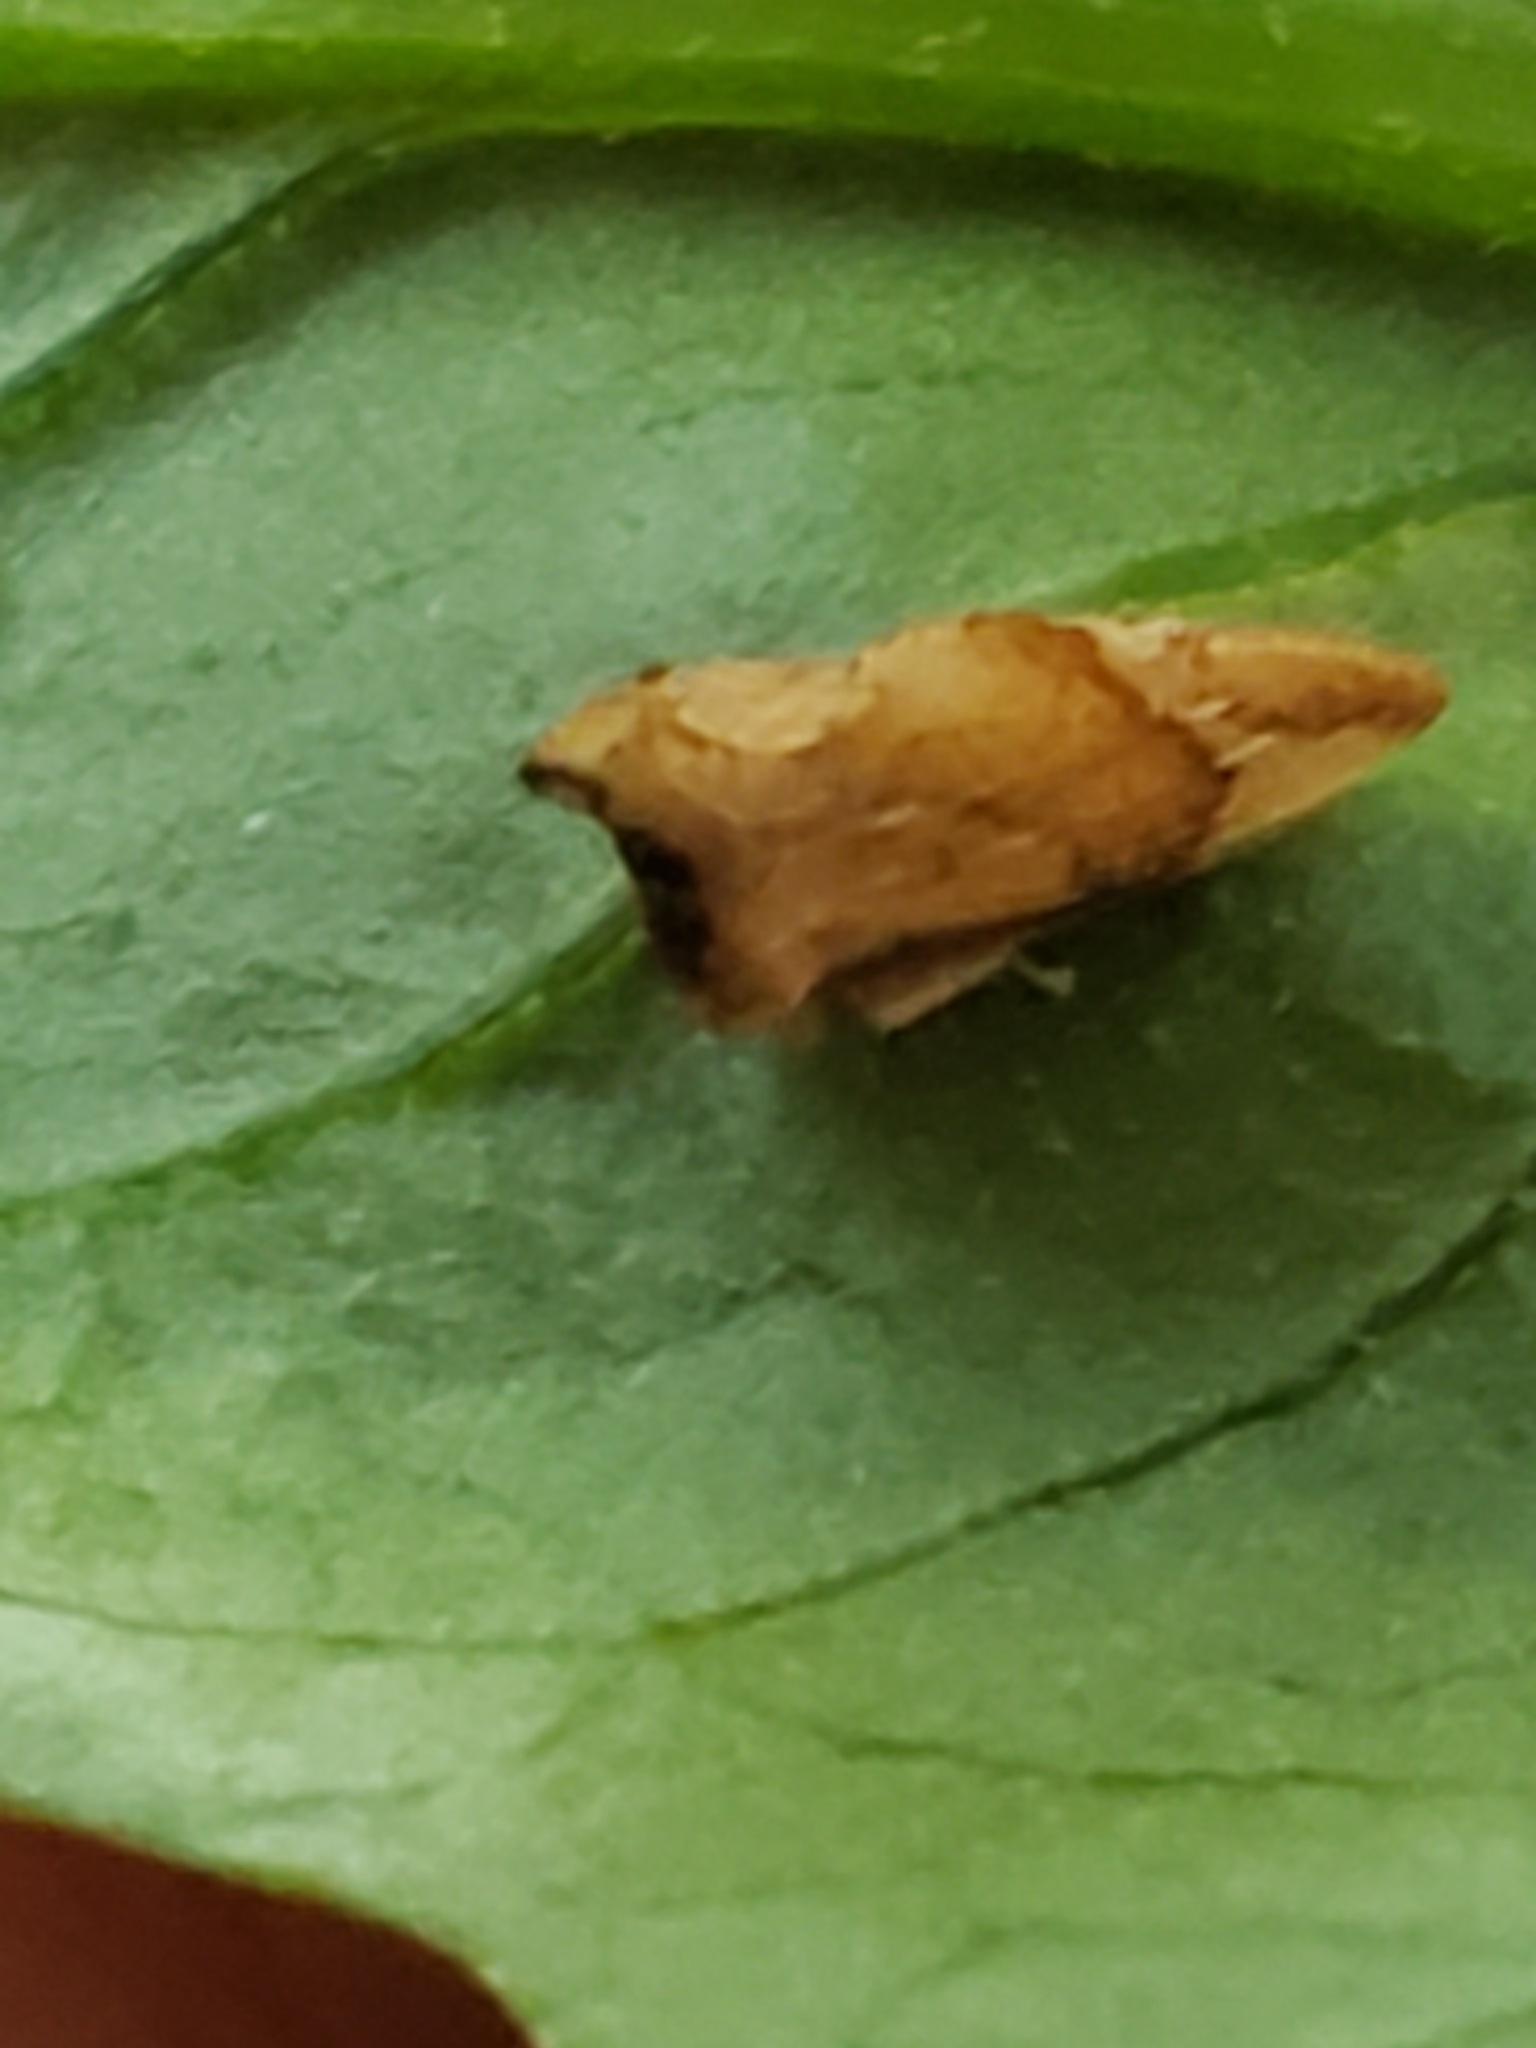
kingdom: Animalia
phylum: Arthropoda
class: Insecta
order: Hemiptera
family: Membracidae
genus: Entylia
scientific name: Entylia carinata
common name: Keeled treehopper
